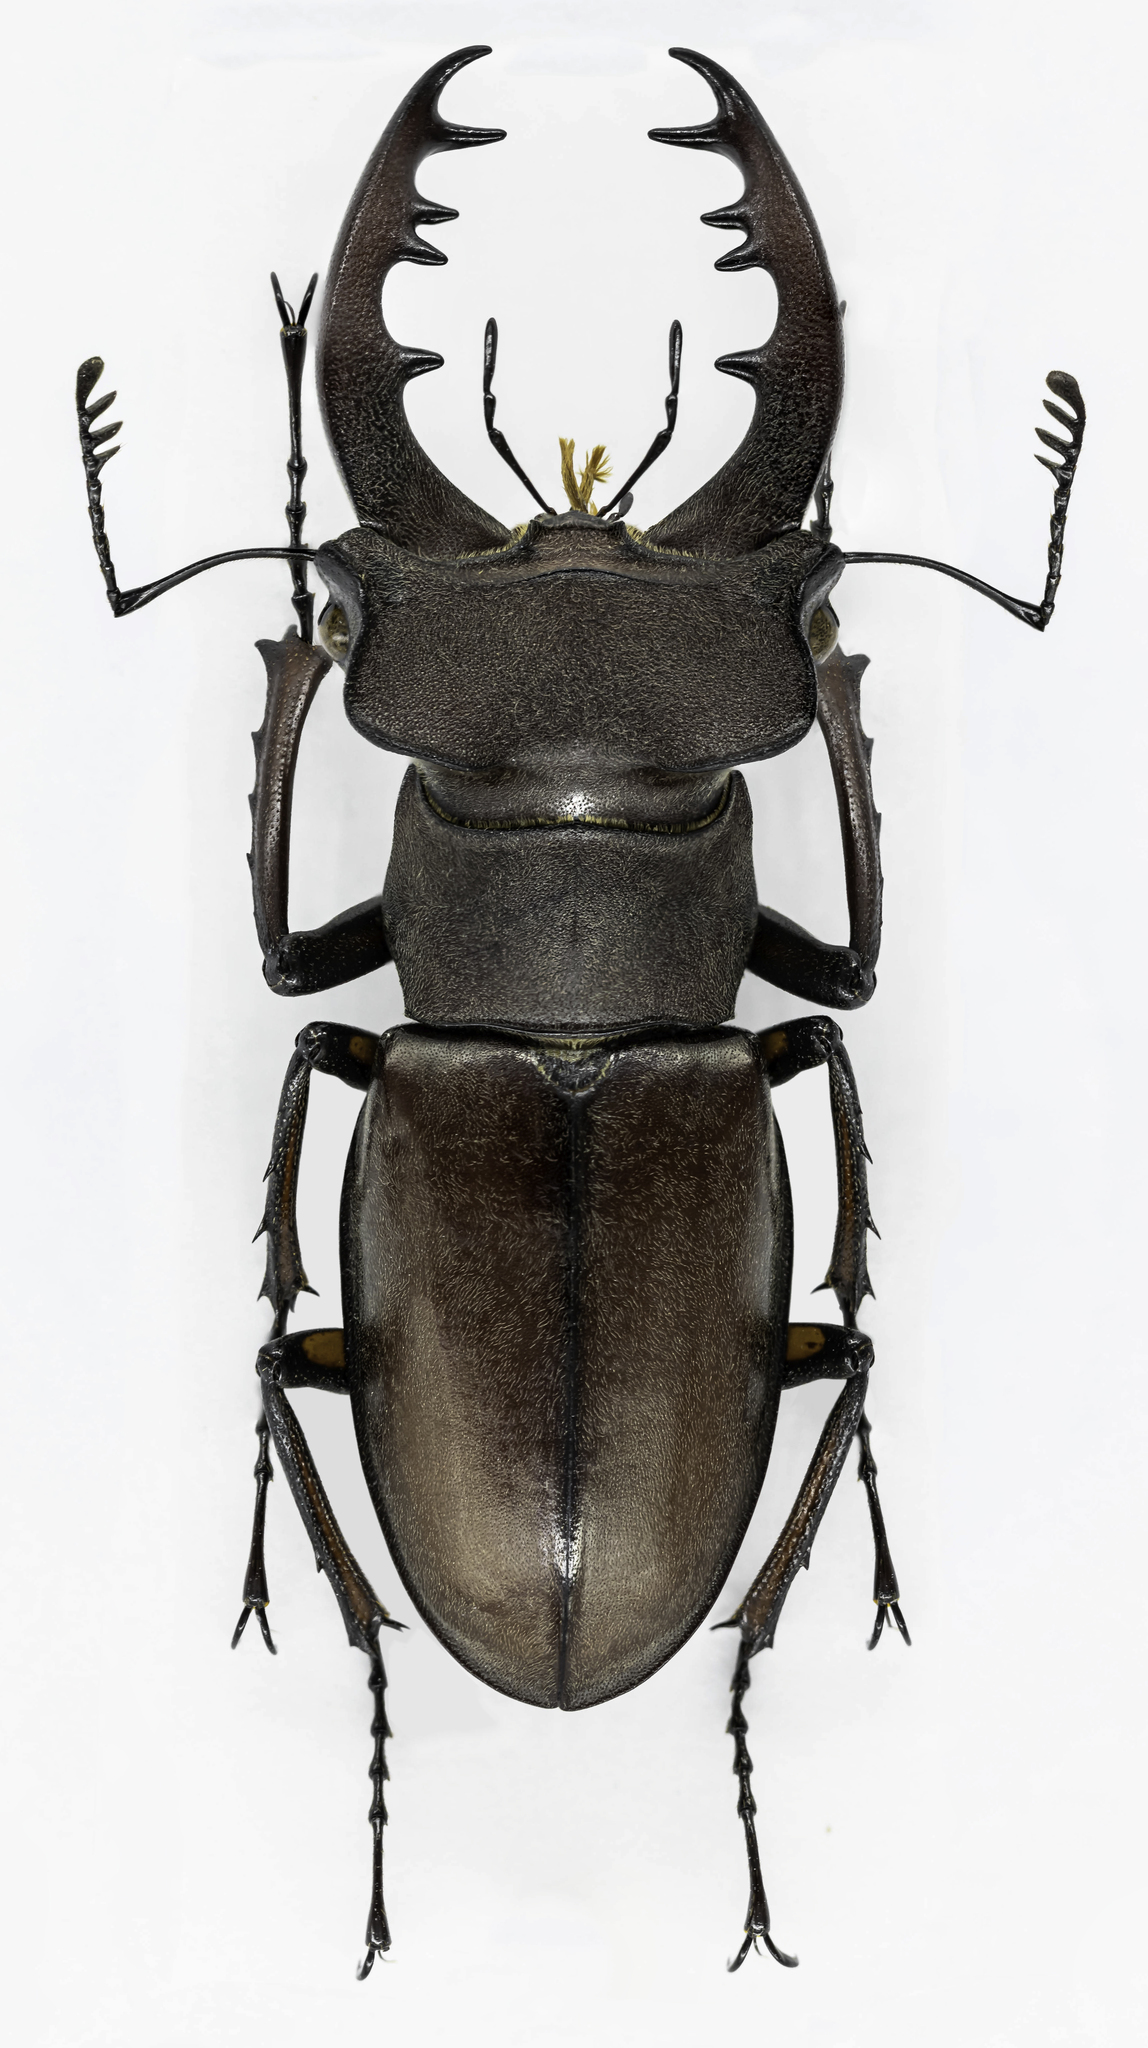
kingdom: Animalia
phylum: Arthropoda
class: Insecta
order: Coleoptera
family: Lucanidae
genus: Lucanus
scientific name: Lucanus kirchneri
